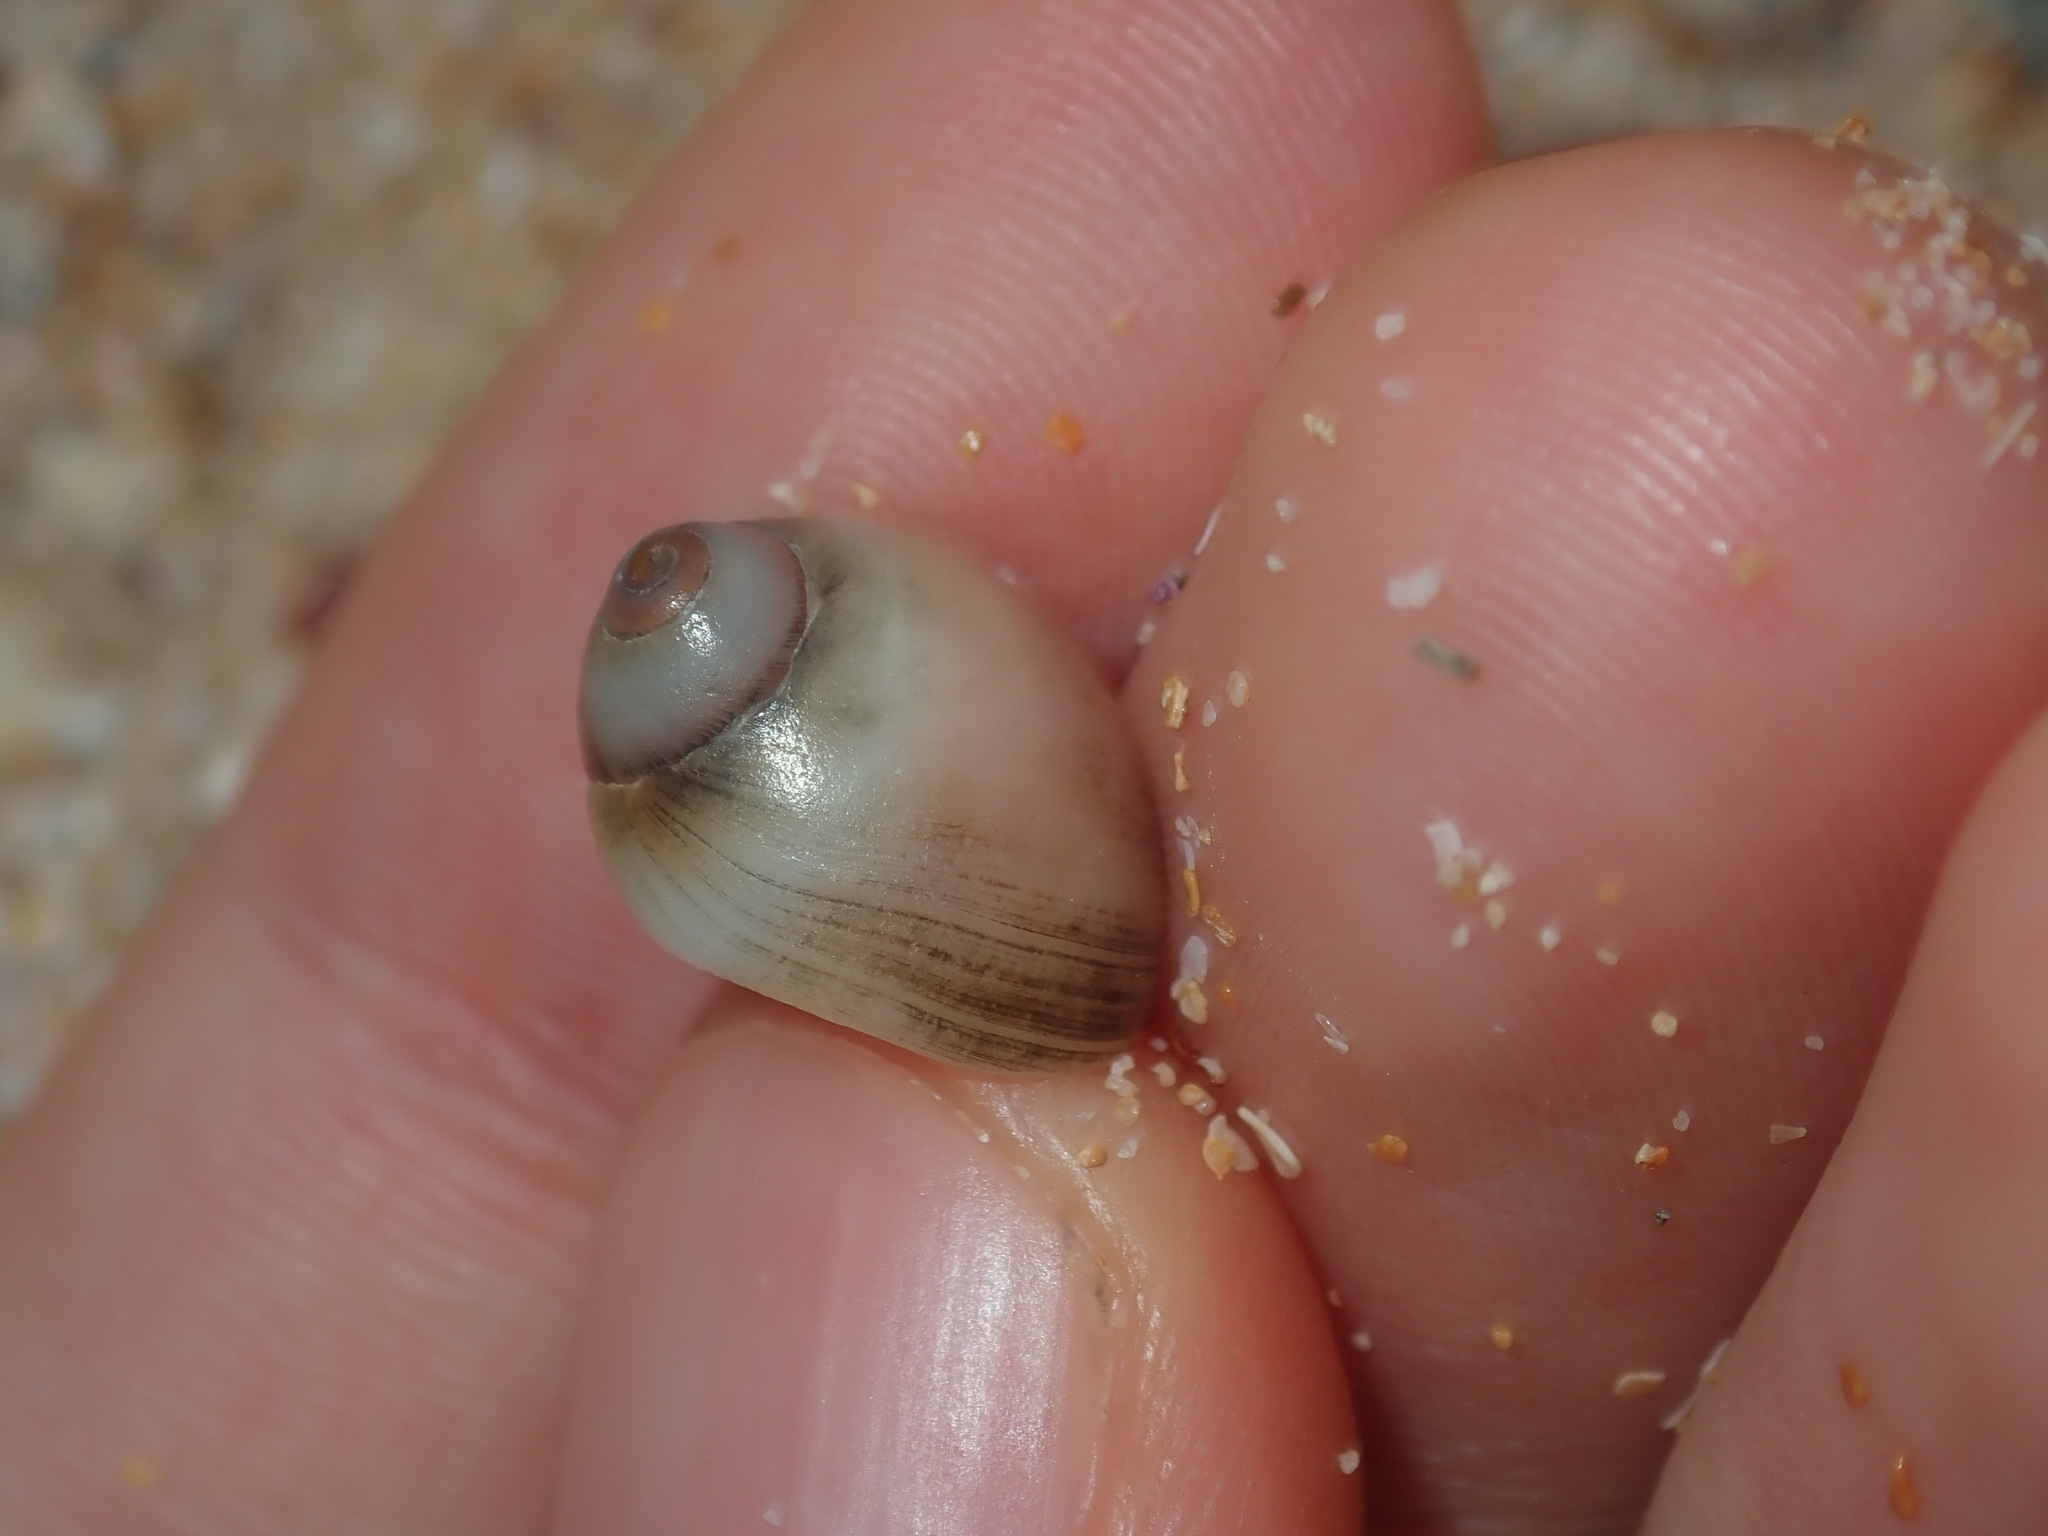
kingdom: Animalia
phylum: Mollusca
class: Gastropoda
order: Littorinimorpha
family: Naticidae
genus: Conuber
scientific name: Conuber conicum
